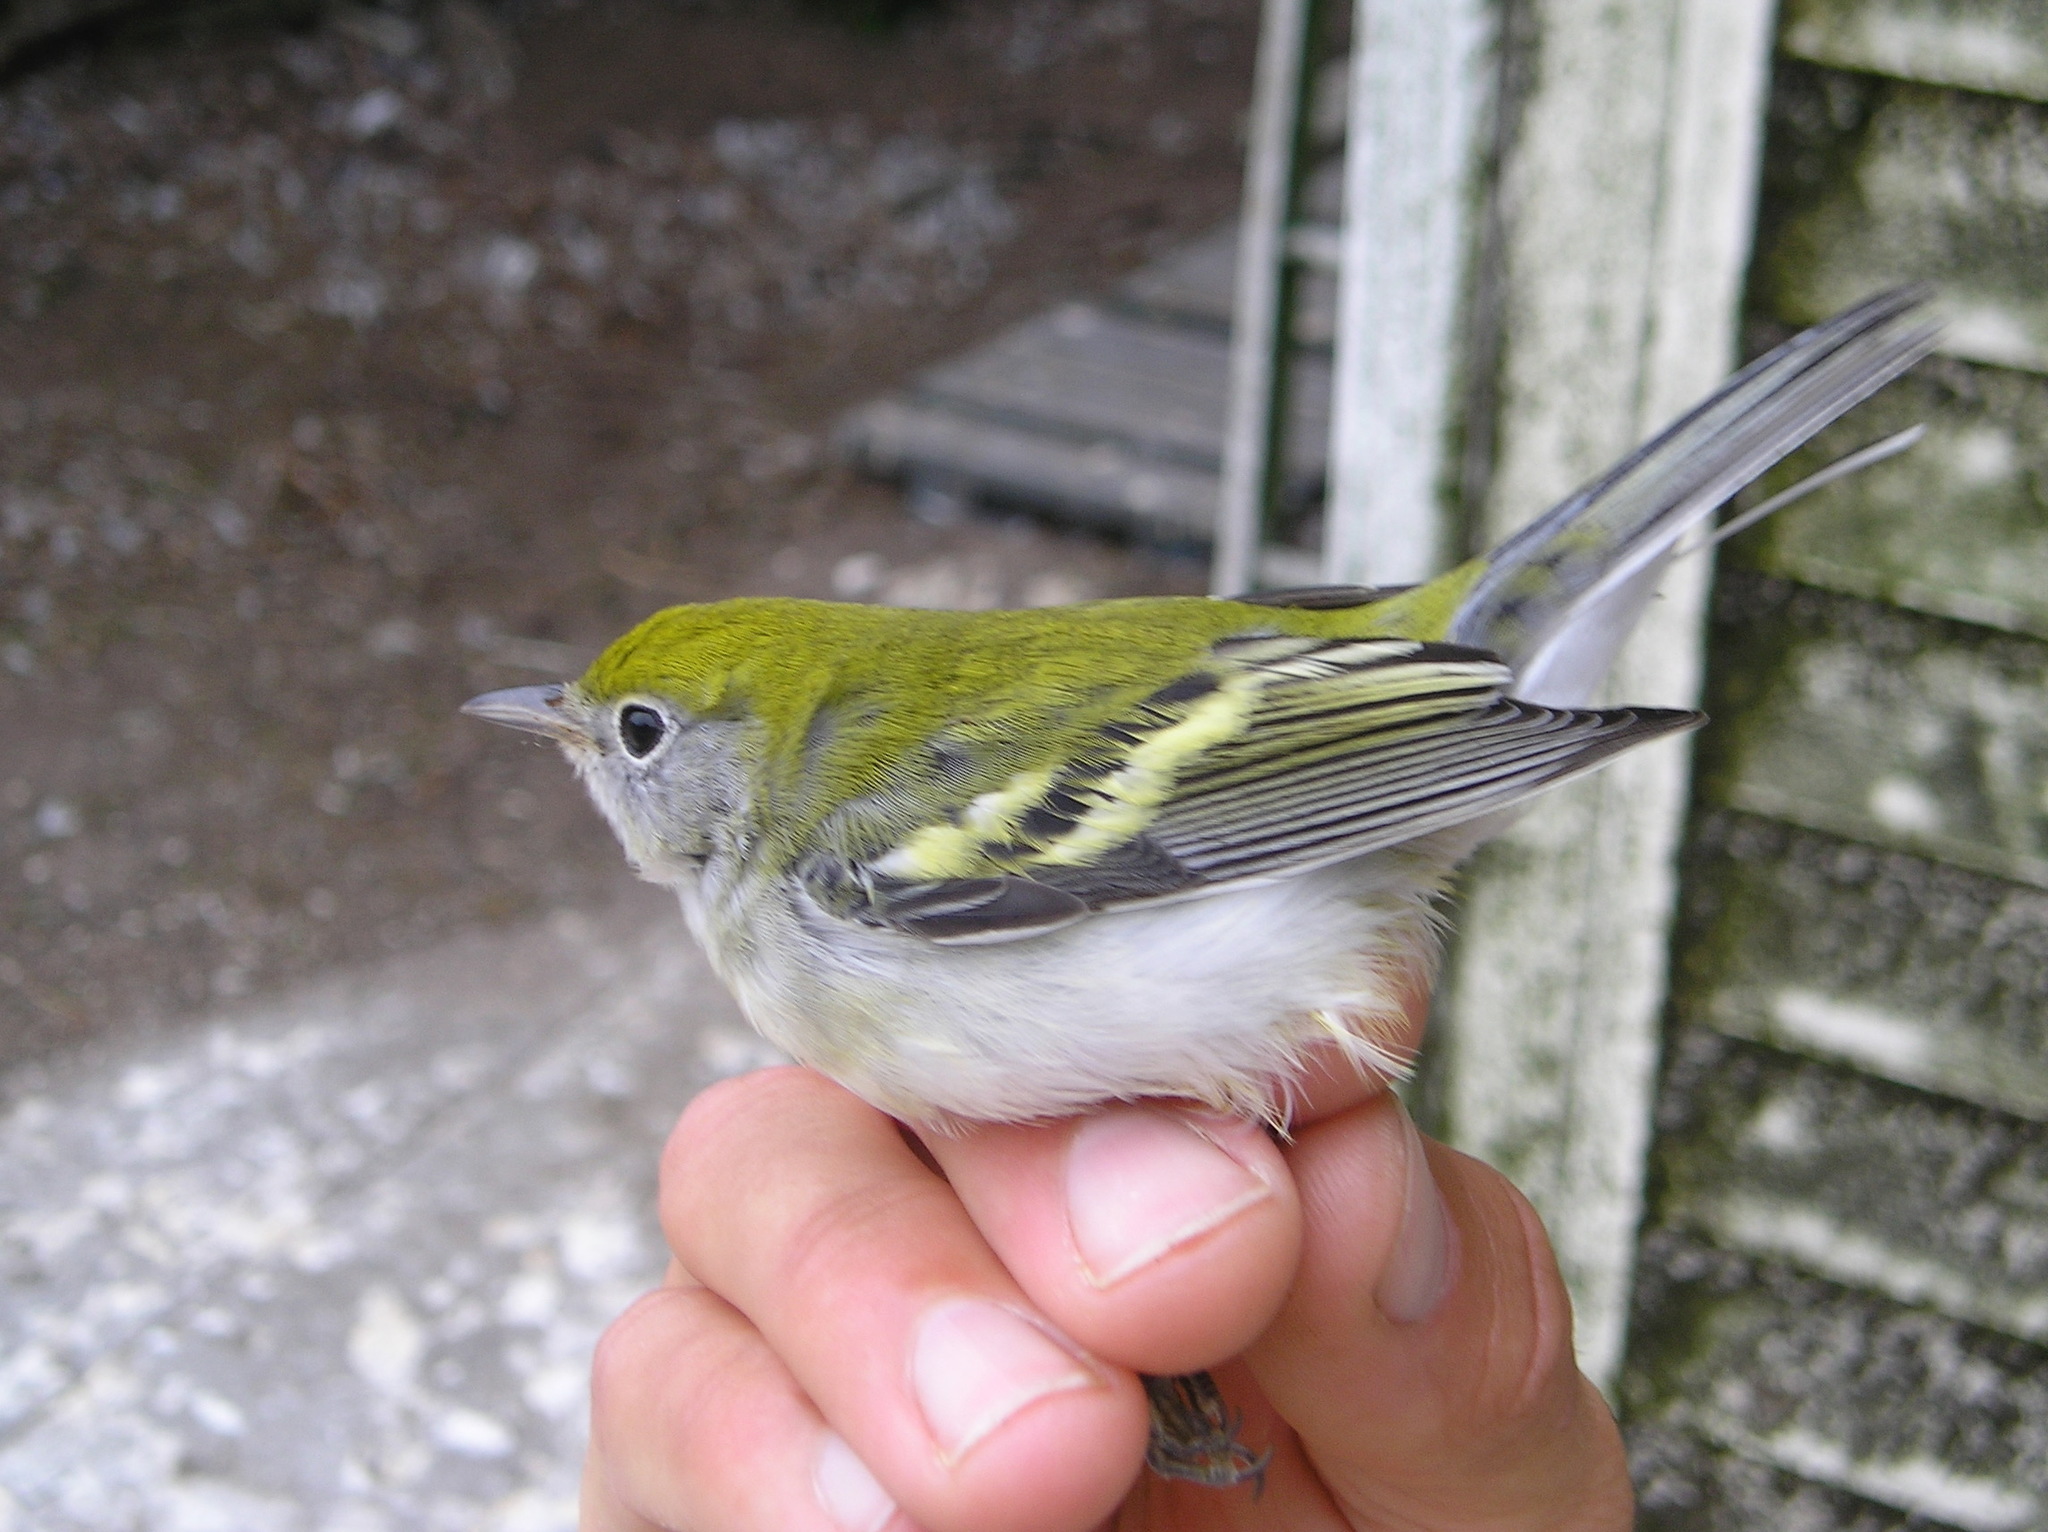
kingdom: Animalia
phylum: Chordata
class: Aves
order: Passeriformes
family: Parulidae
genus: Setophaga
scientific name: Setophaga pensylvanica
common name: Chestnut-sided warbler
